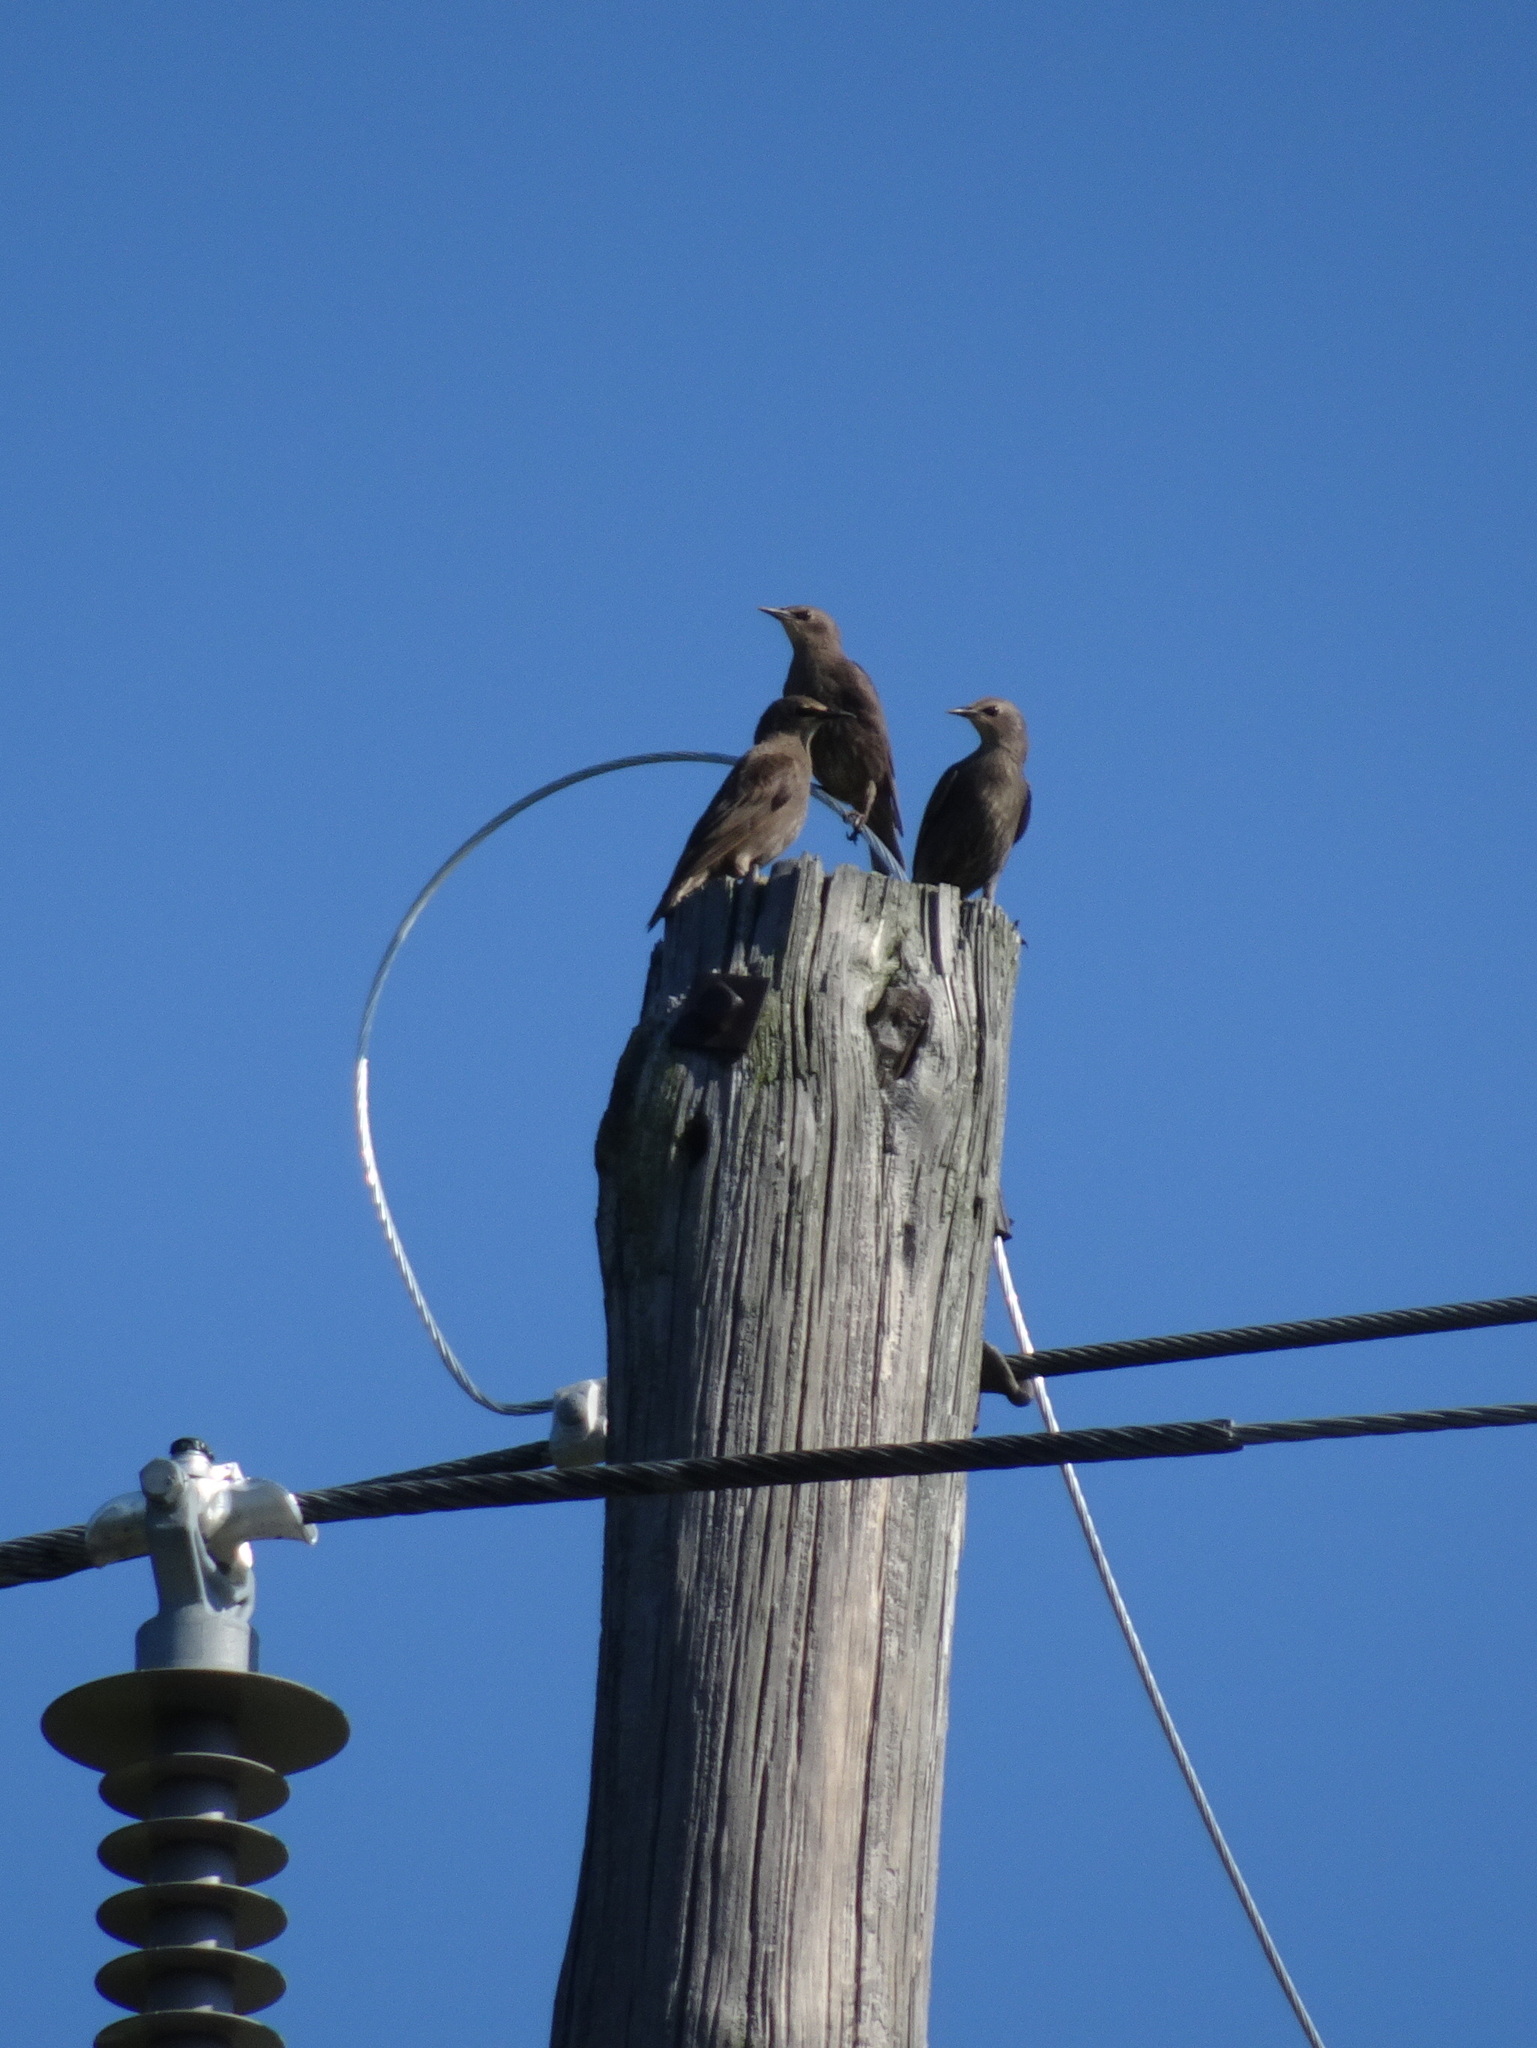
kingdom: Animalia
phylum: Chordata
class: Aves
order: Passeriformes
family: Sturnidae
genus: Sturnus
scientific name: Sturnus vulgaris
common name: Common starling
